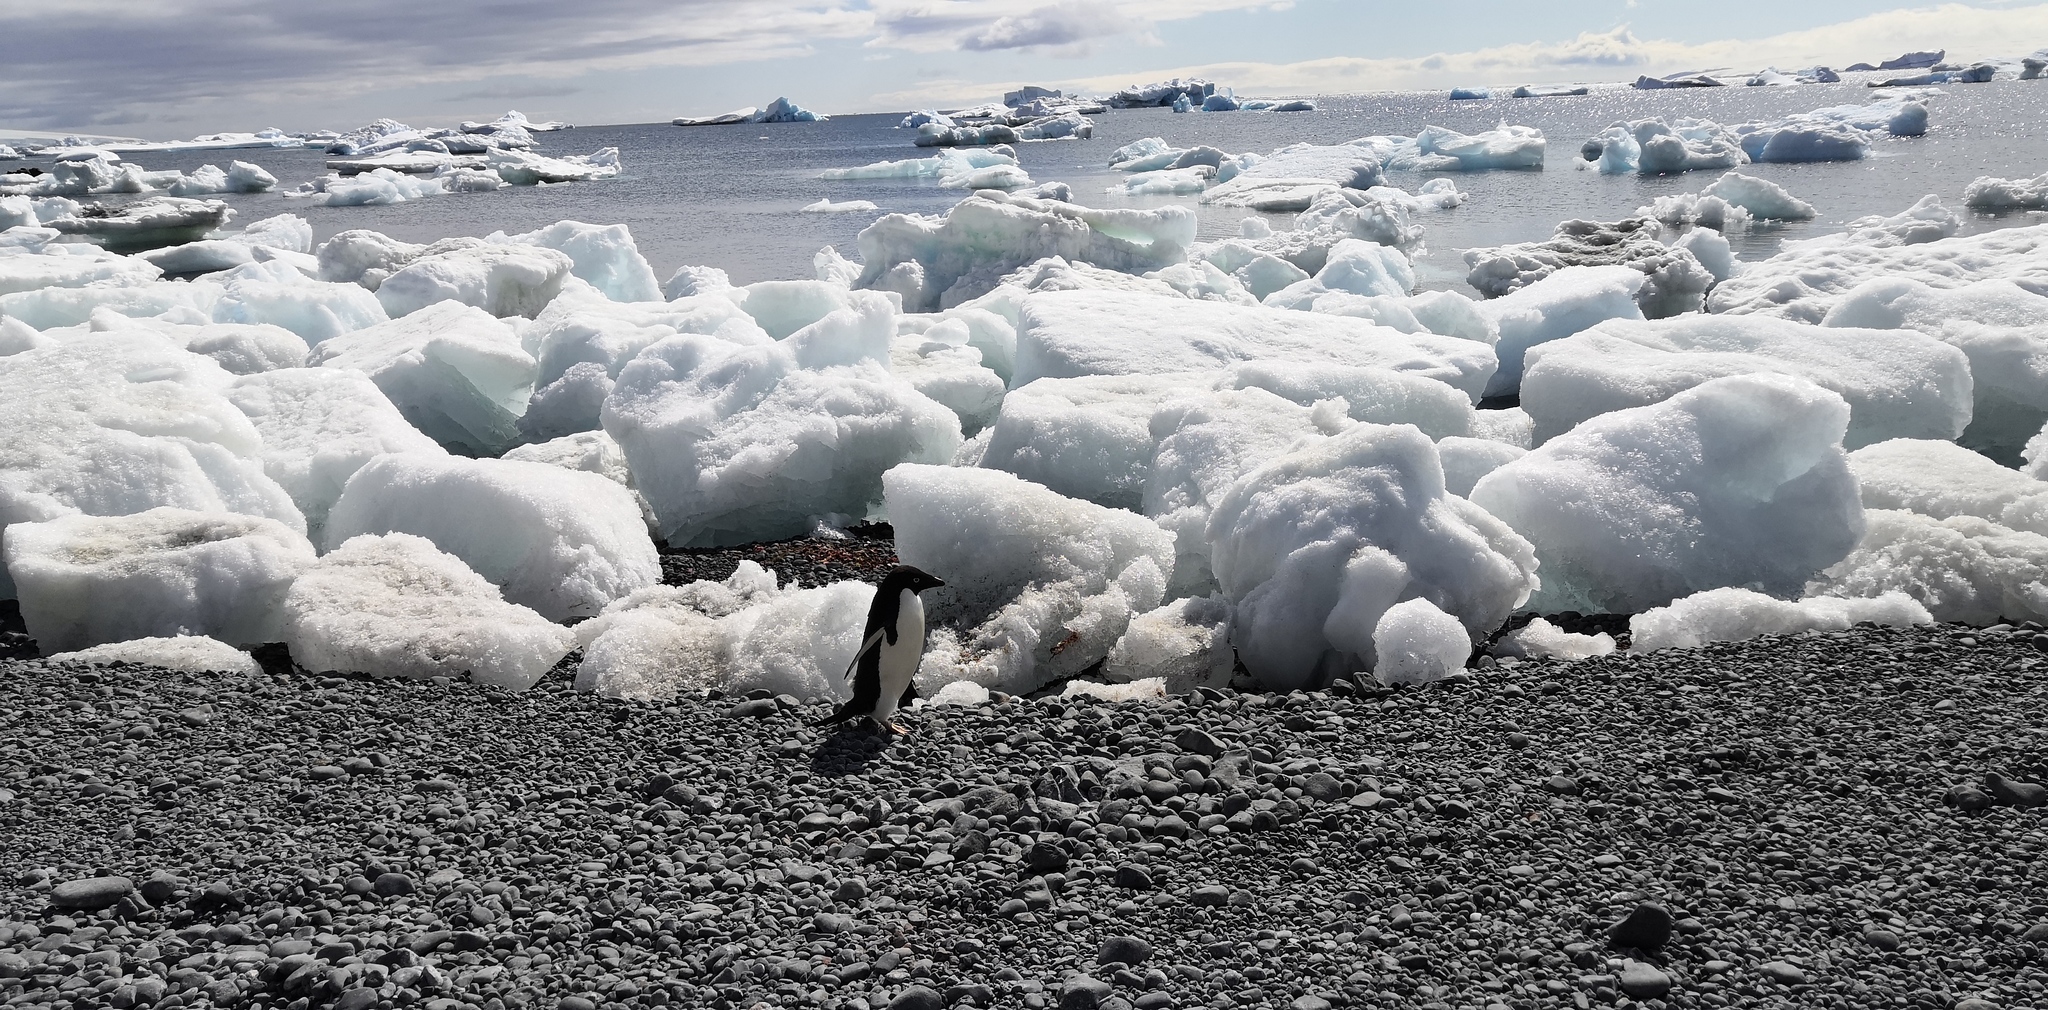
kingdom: Animalia
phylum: Chordata
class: Aves
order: Sphenisciformes
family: Spheniscidae
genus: Pygoscelis
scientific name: Pygoscelis adeliae
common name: Adelie penguin
